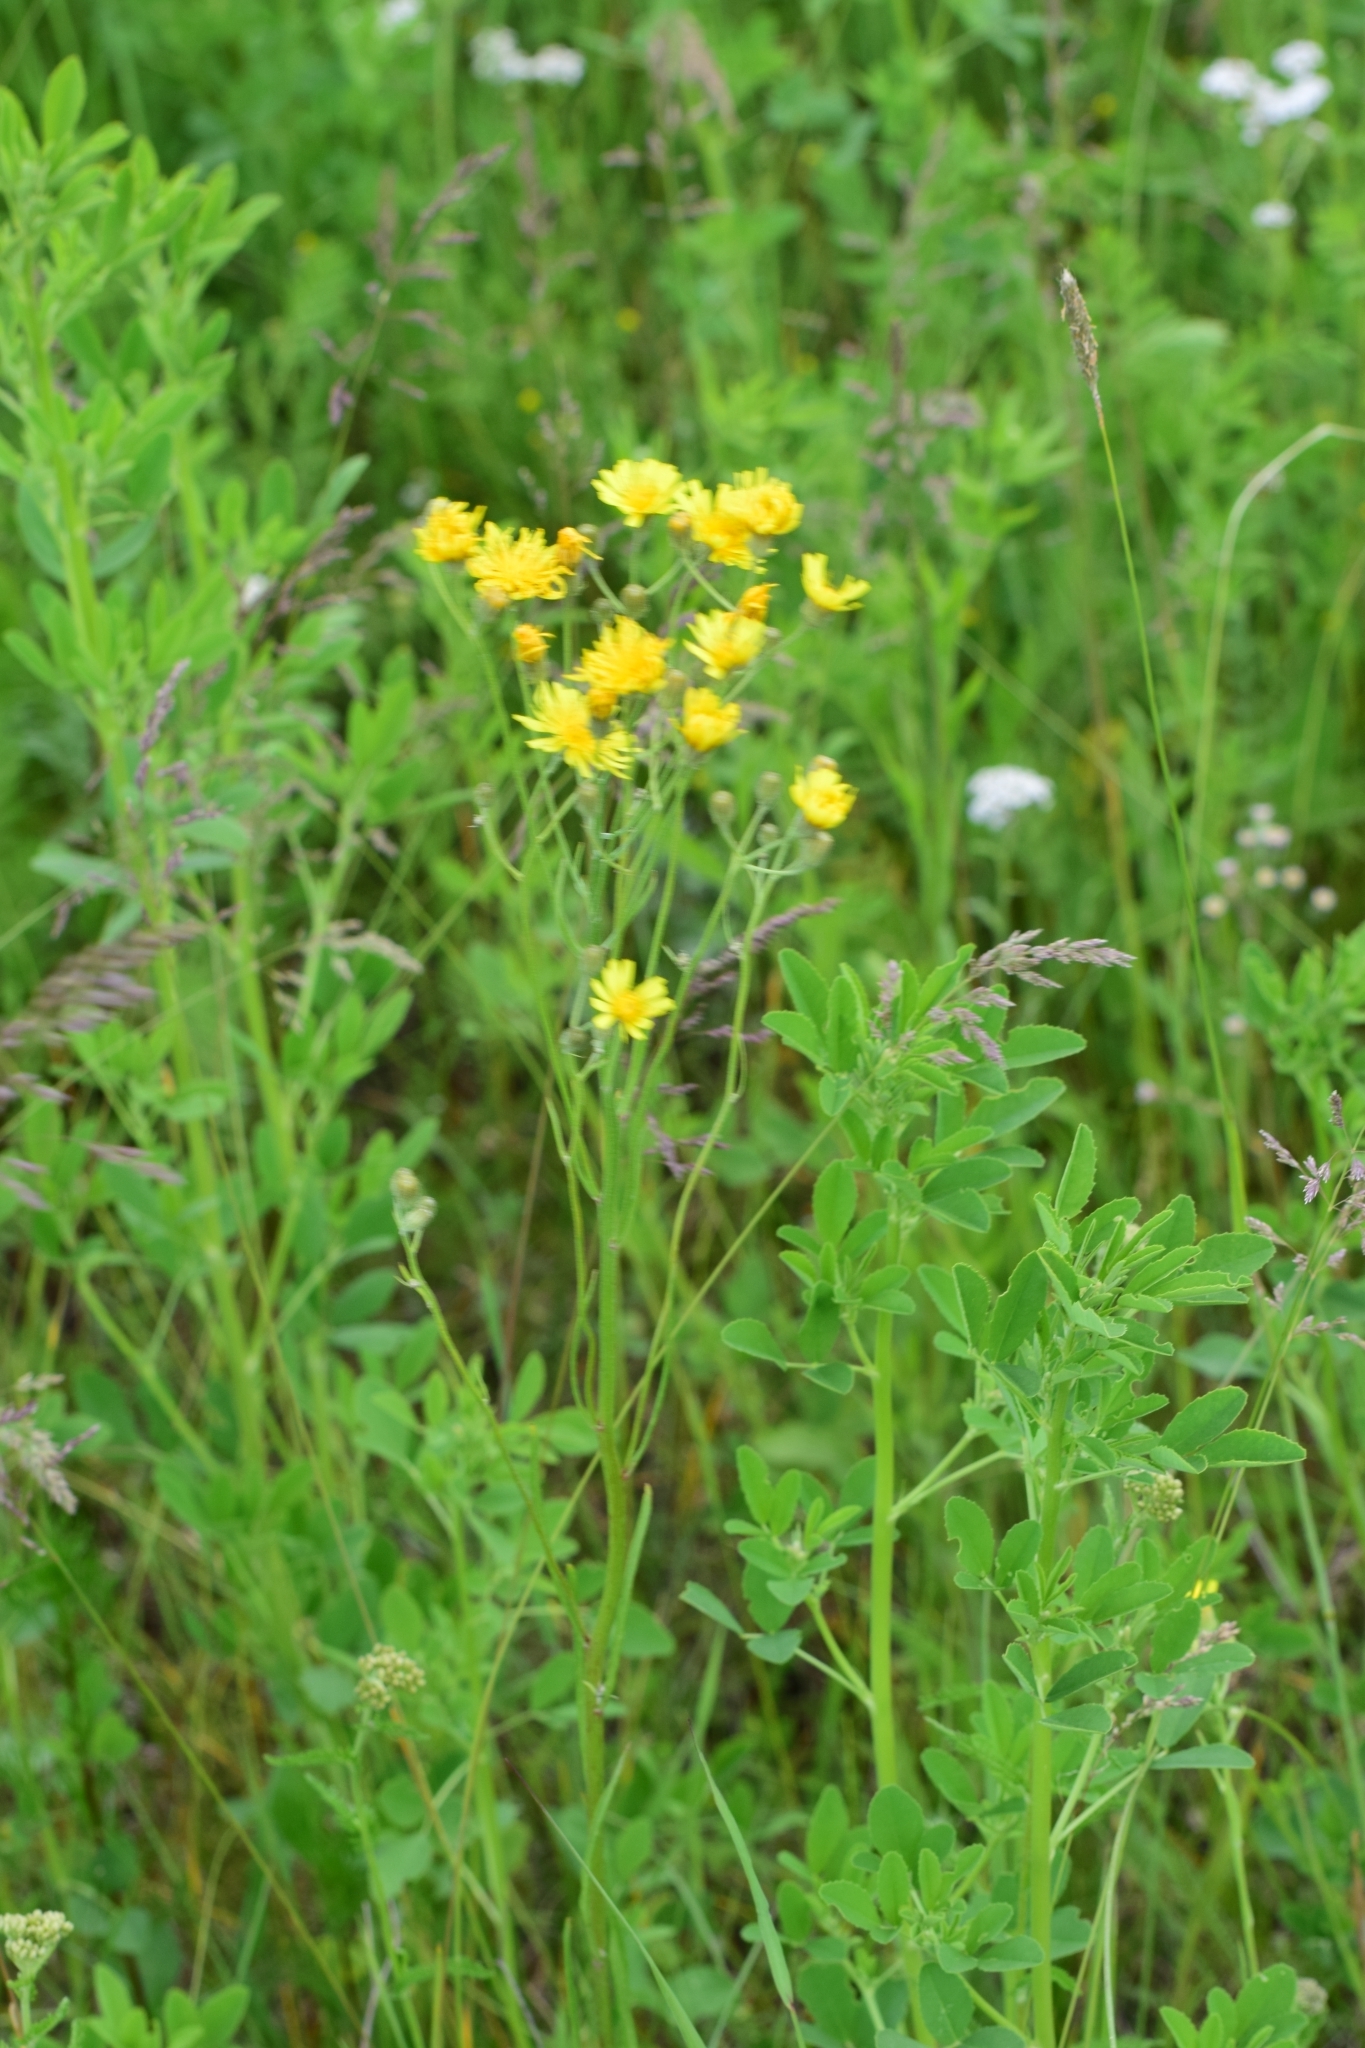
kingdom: Plantae
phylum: Tracheophyta
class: Magnoliopsida
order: Asterales
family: Asteraceae
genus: Crepis
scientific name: Crepis tectorum
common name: Narrow-leaved hawk's-beard
